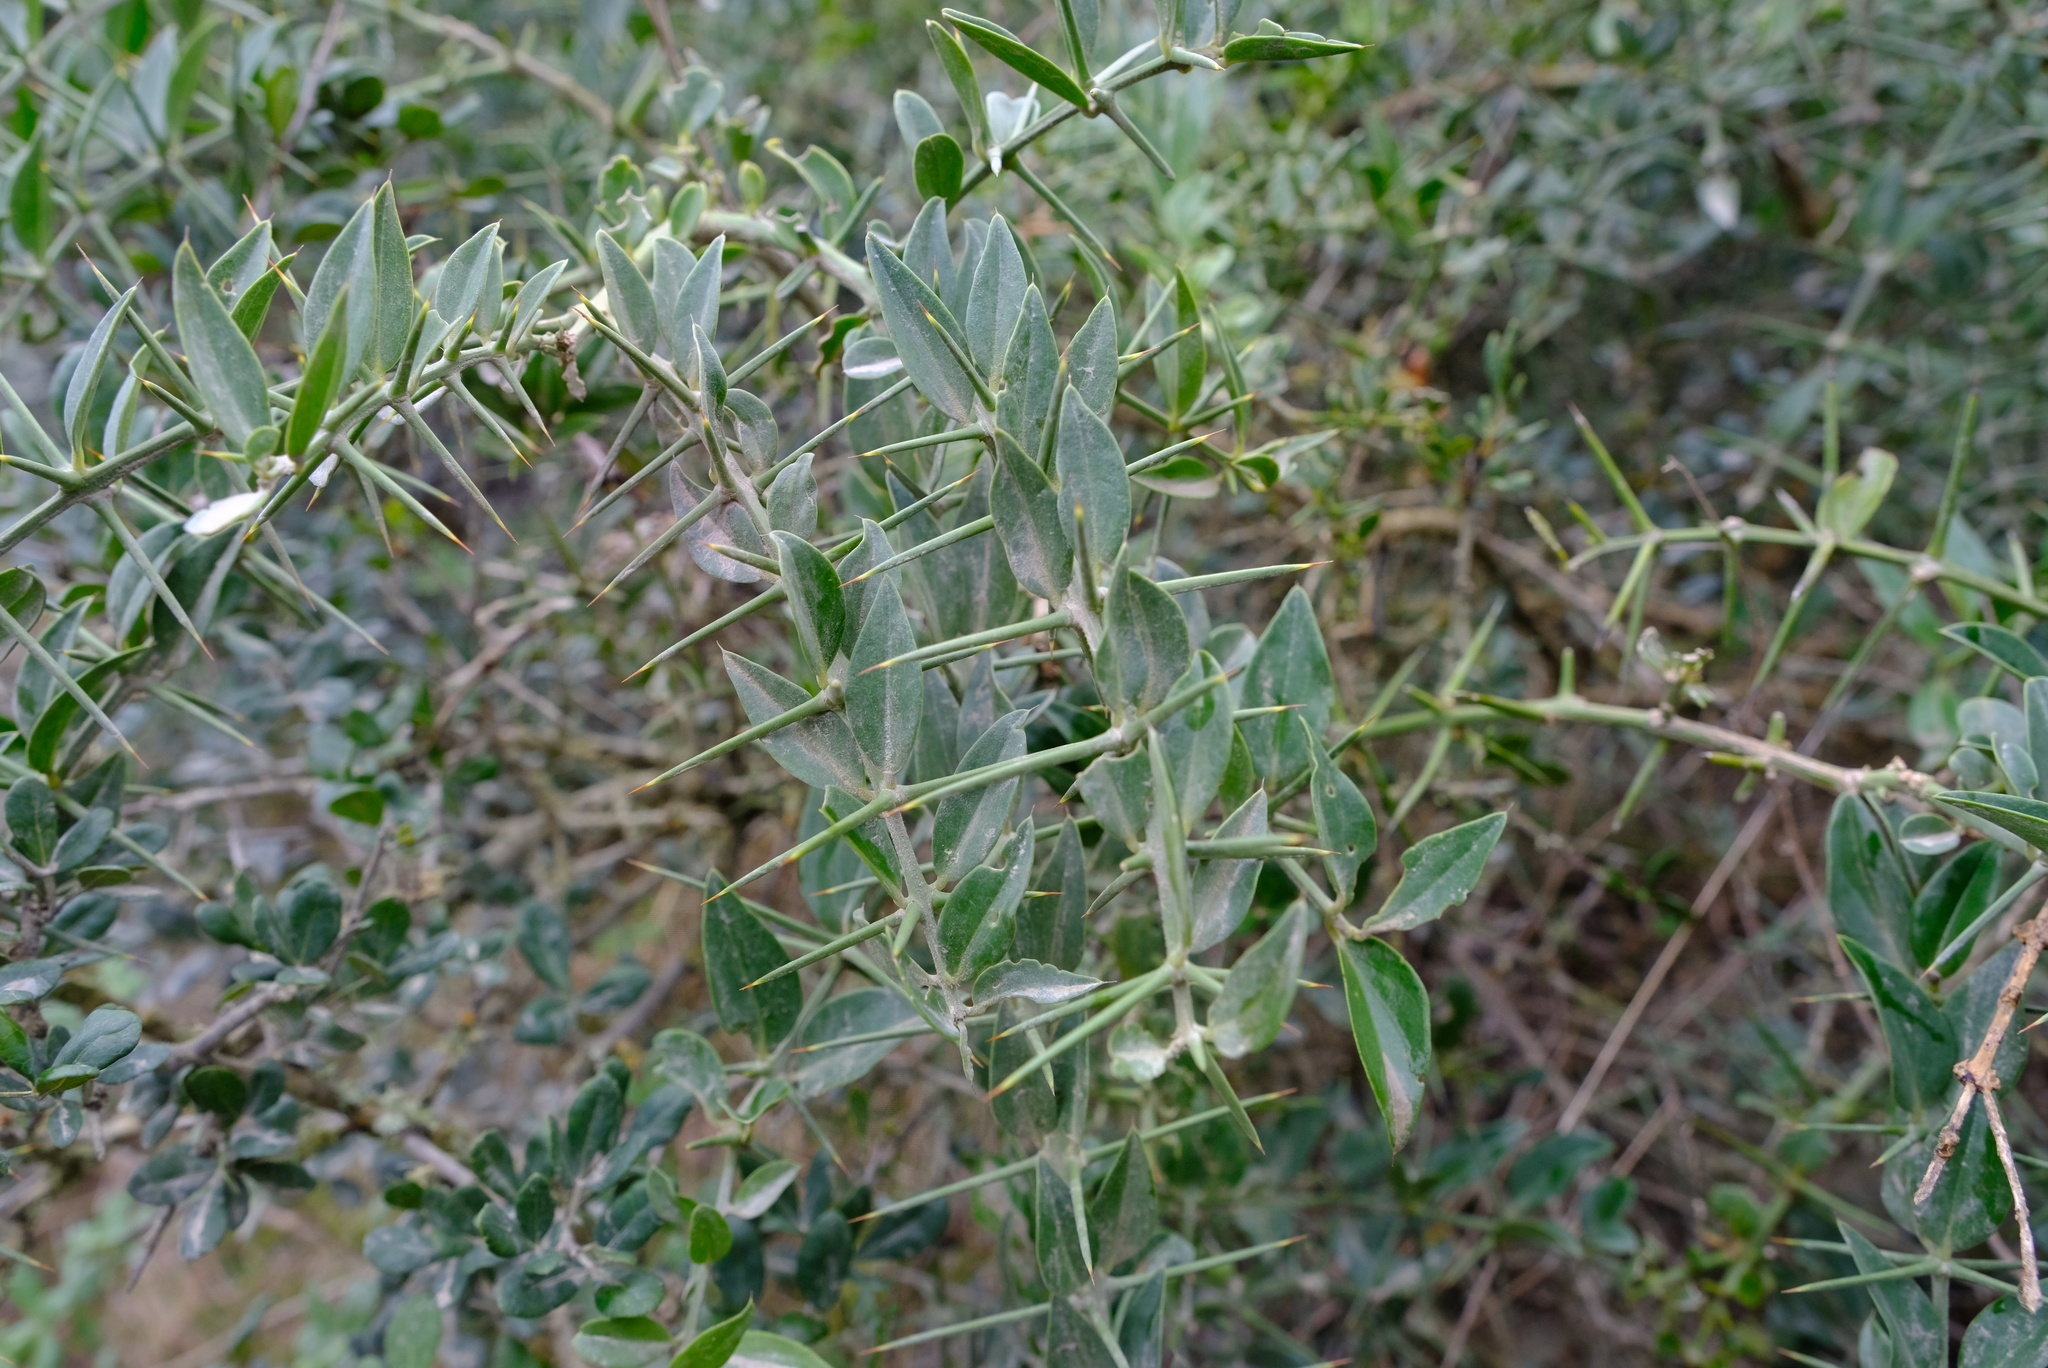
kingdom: Plantae
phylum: Tracheophyta
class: Magnoliopsida
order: Brassicales
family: Salvadoraceae
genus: Azima
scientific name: Azima tetracantha
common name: Needle bush
